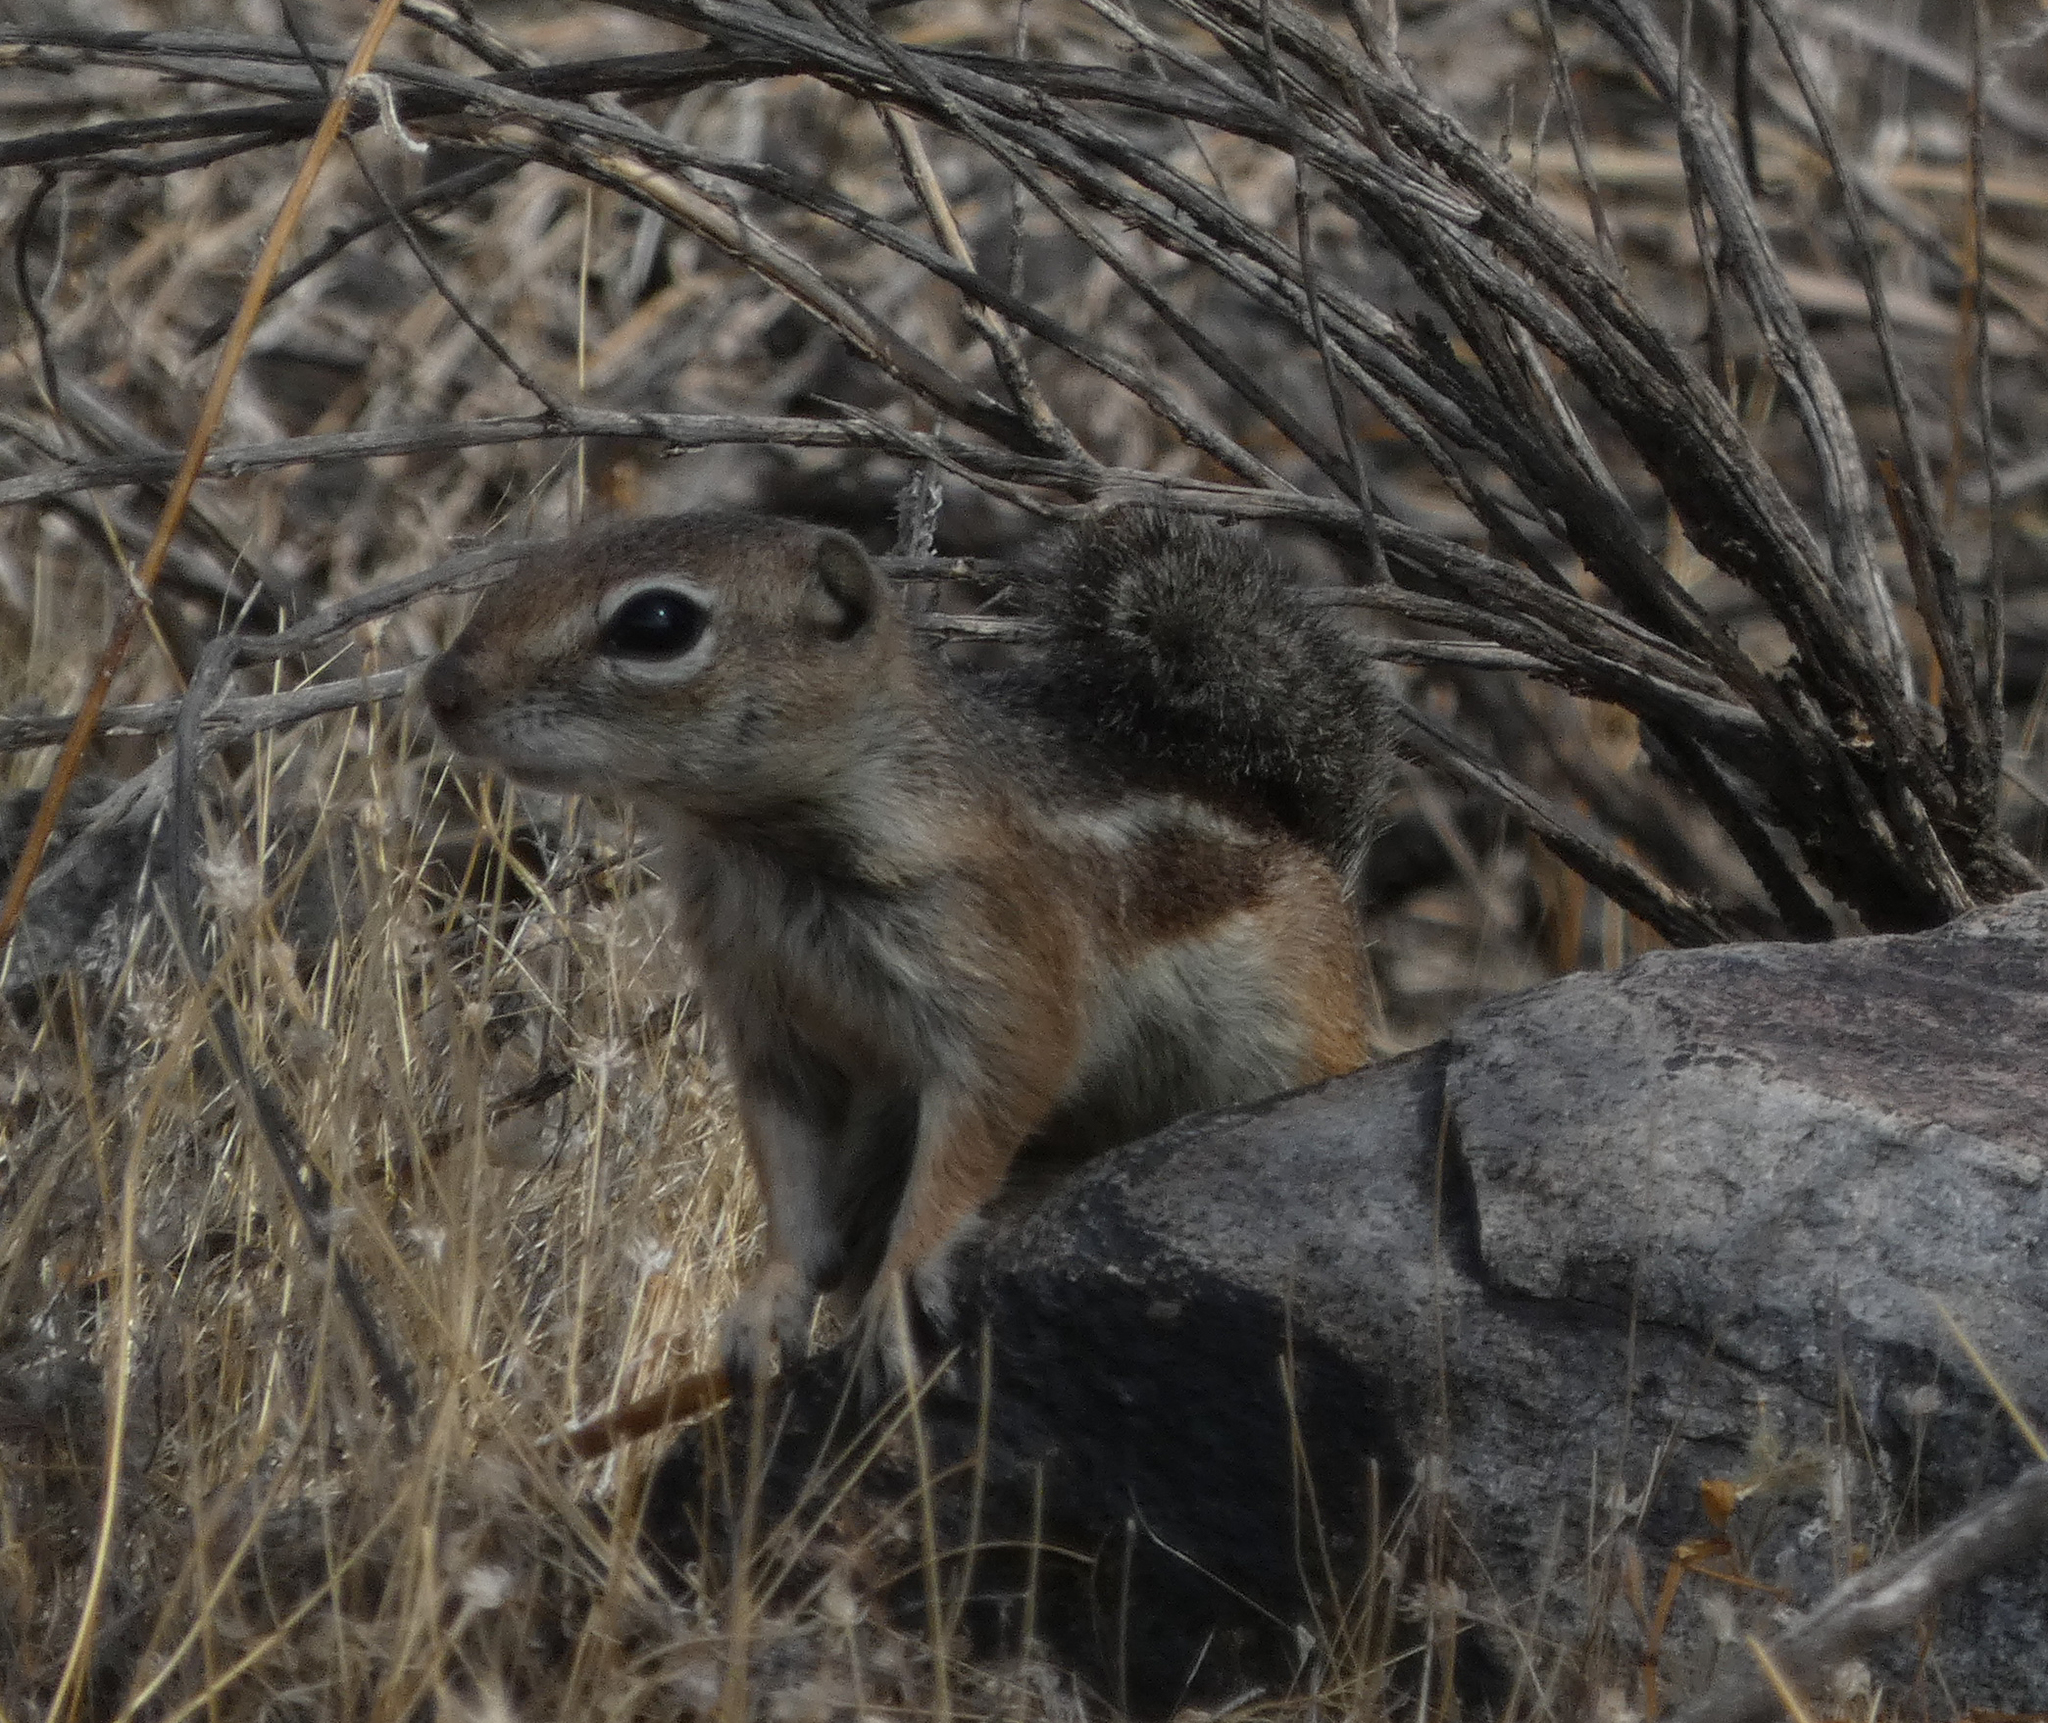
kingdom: Animalia
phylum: Chordata
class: Mammalia
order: Rodentia
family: Sciuridae
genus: Ammospermophilus
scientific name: Ammospermophilus harrisii
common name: Harris's antelope squirrel
